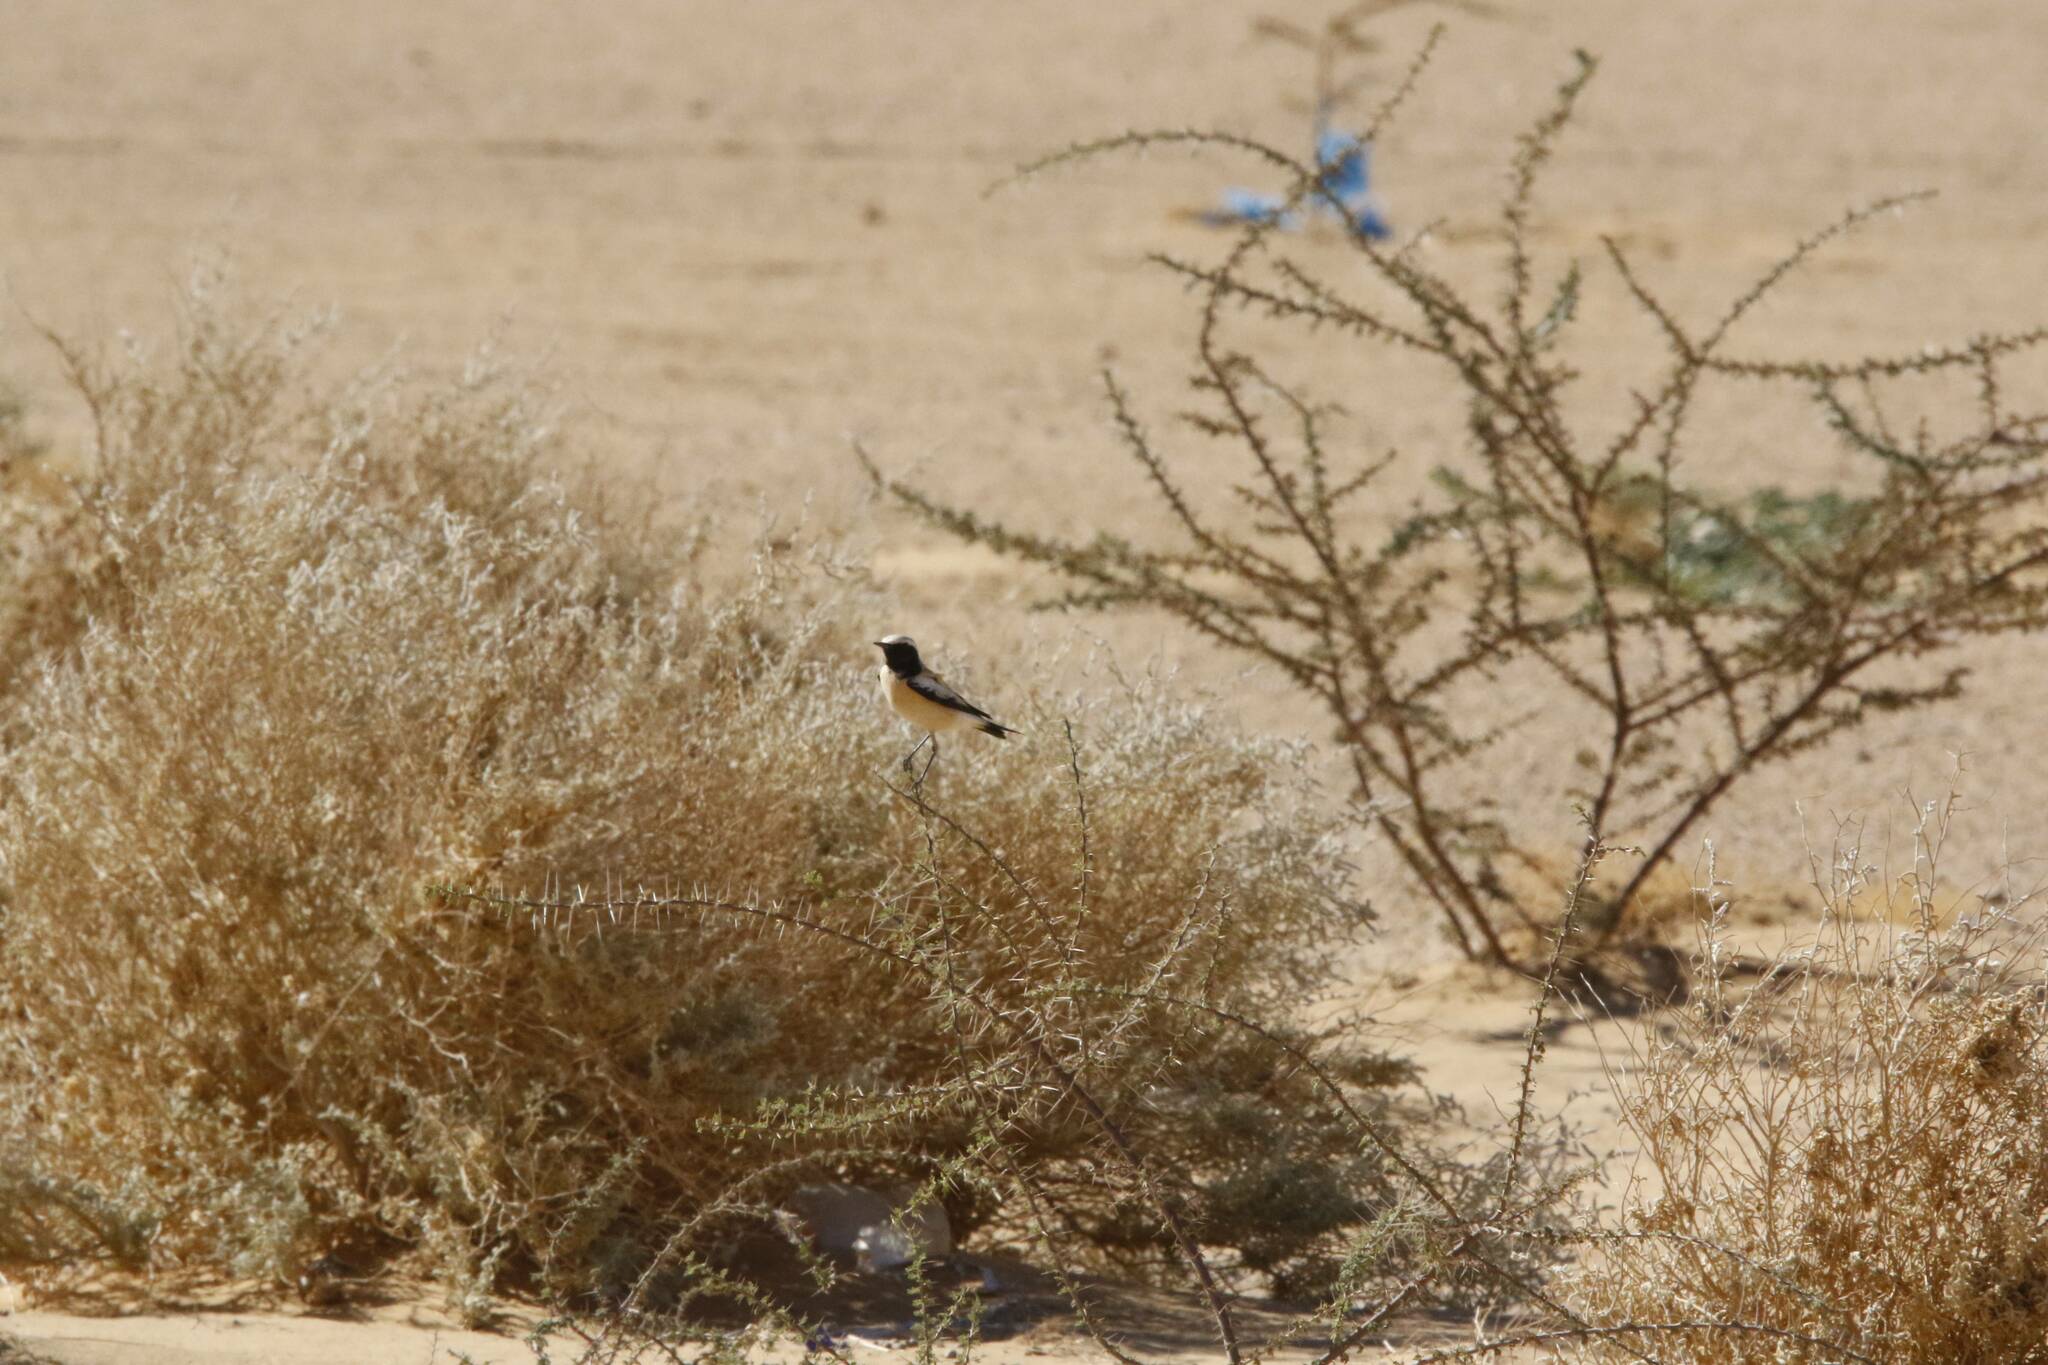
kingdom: Animalia
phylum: Chordata
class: Aves
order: Passeriformes
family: Muscicapidae
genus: Oenanthe
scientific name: Oenanthe deserti
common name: Desert wheatear
